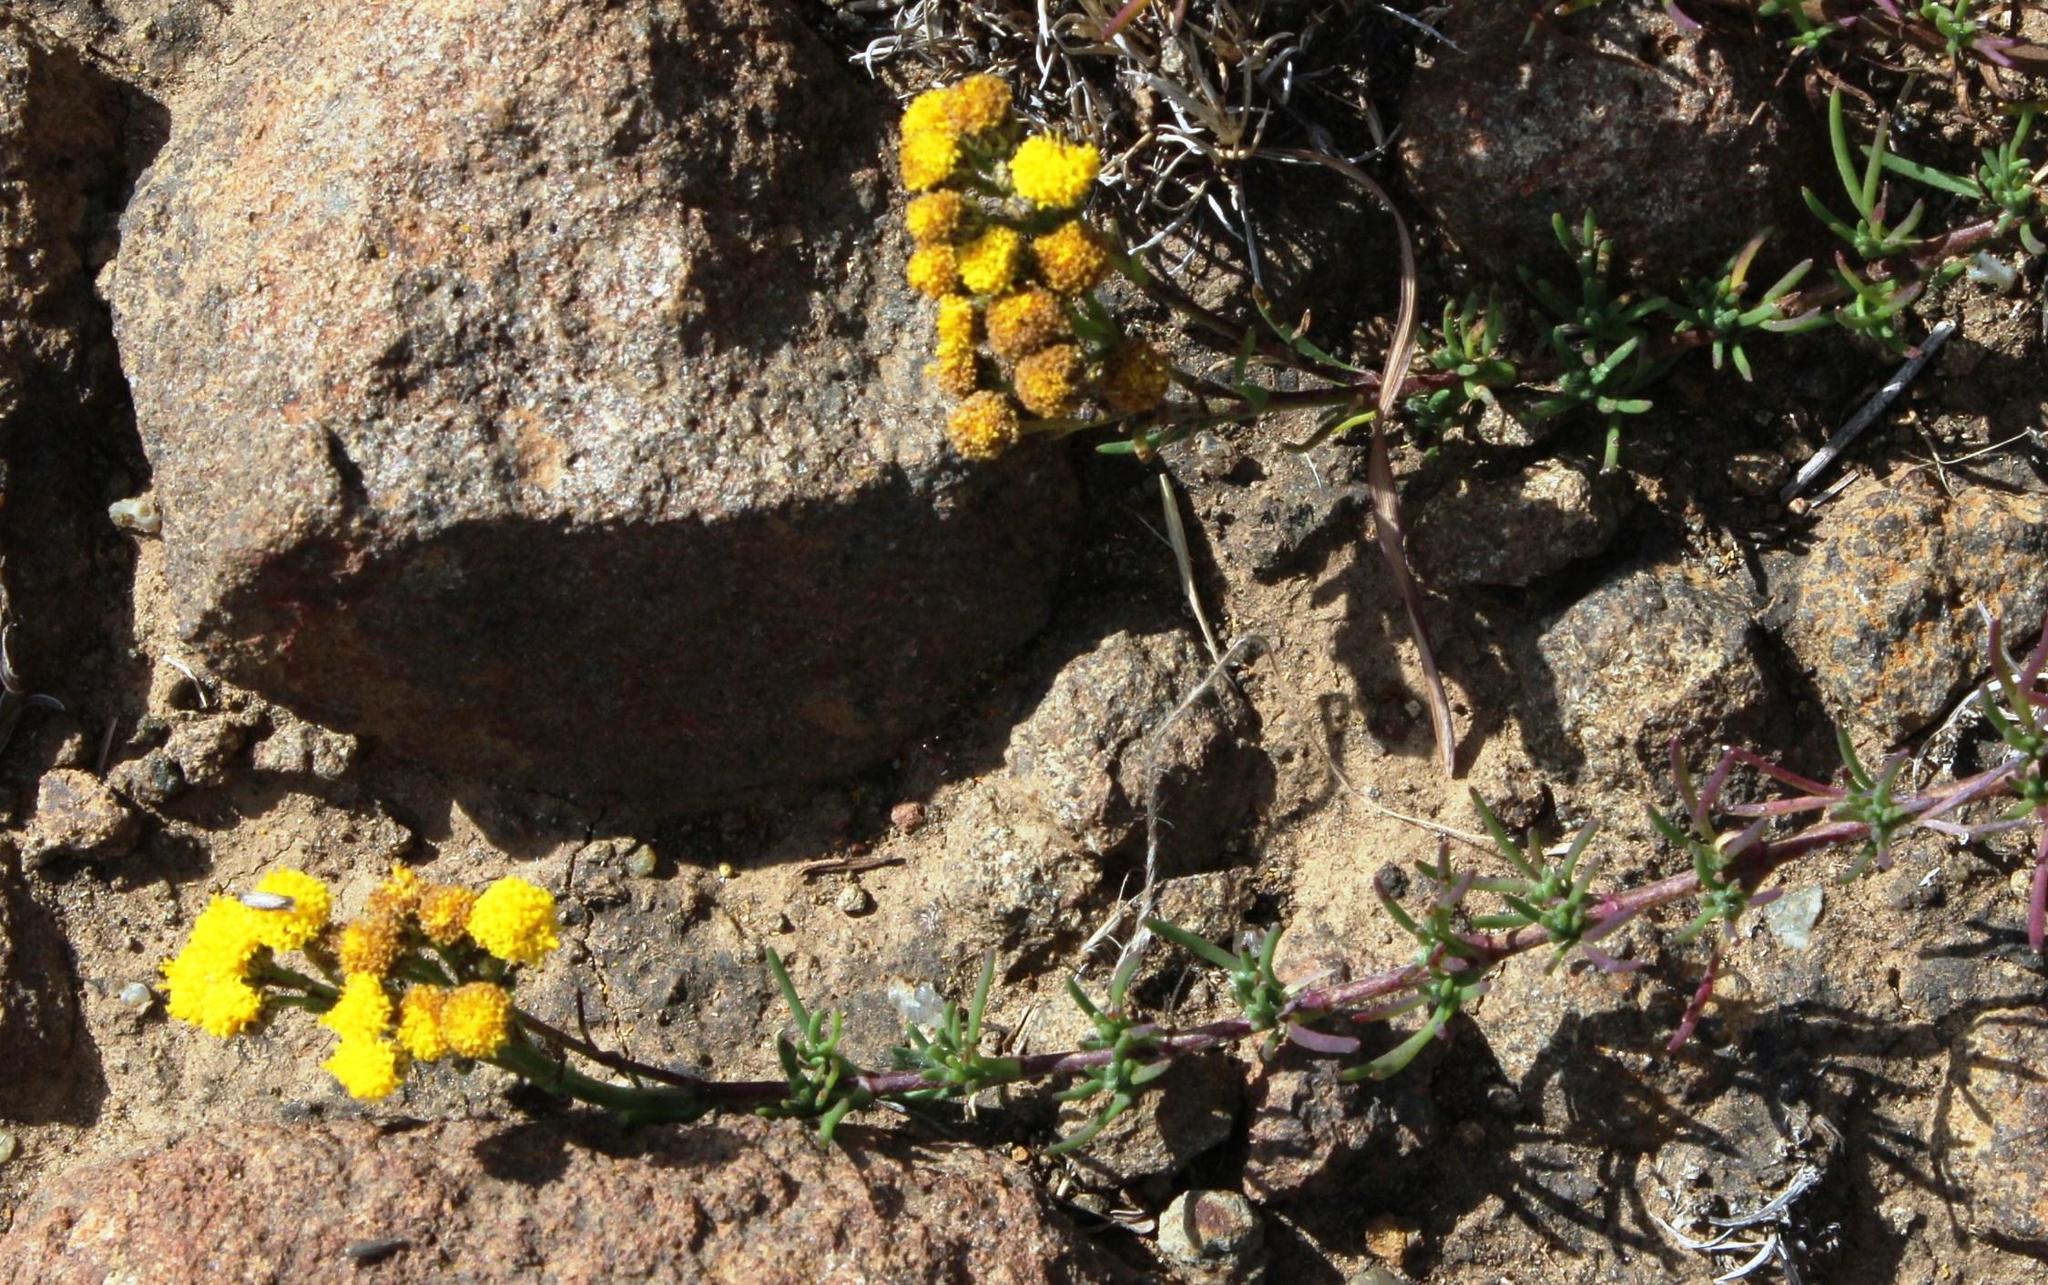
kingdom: Plantae
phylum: Tracheophyta
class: Magnoliopsida
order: Asterales
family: Asteraceae
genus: Gymnopentzia
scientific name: Gymnopentzia bifurcata
